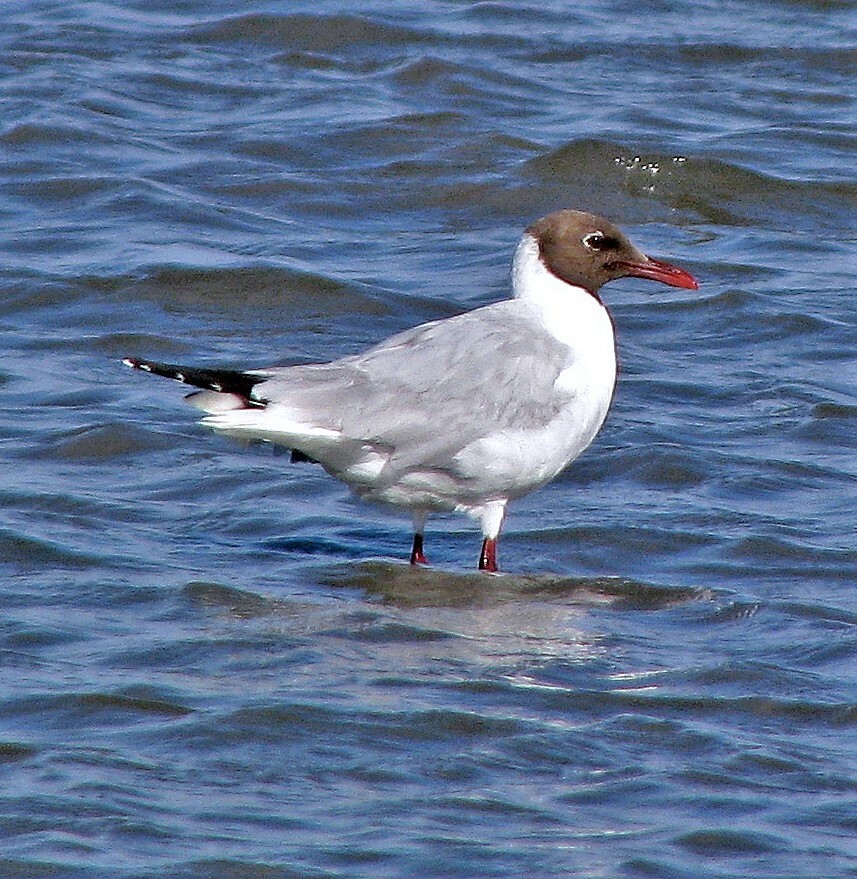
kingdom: Animalia
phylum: Chordata
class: Aves
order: Charadriiformes
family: Laridae
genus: Chroicocephalus
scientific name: Chroicocephalus maculipennis
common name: Brown-hooded gull
